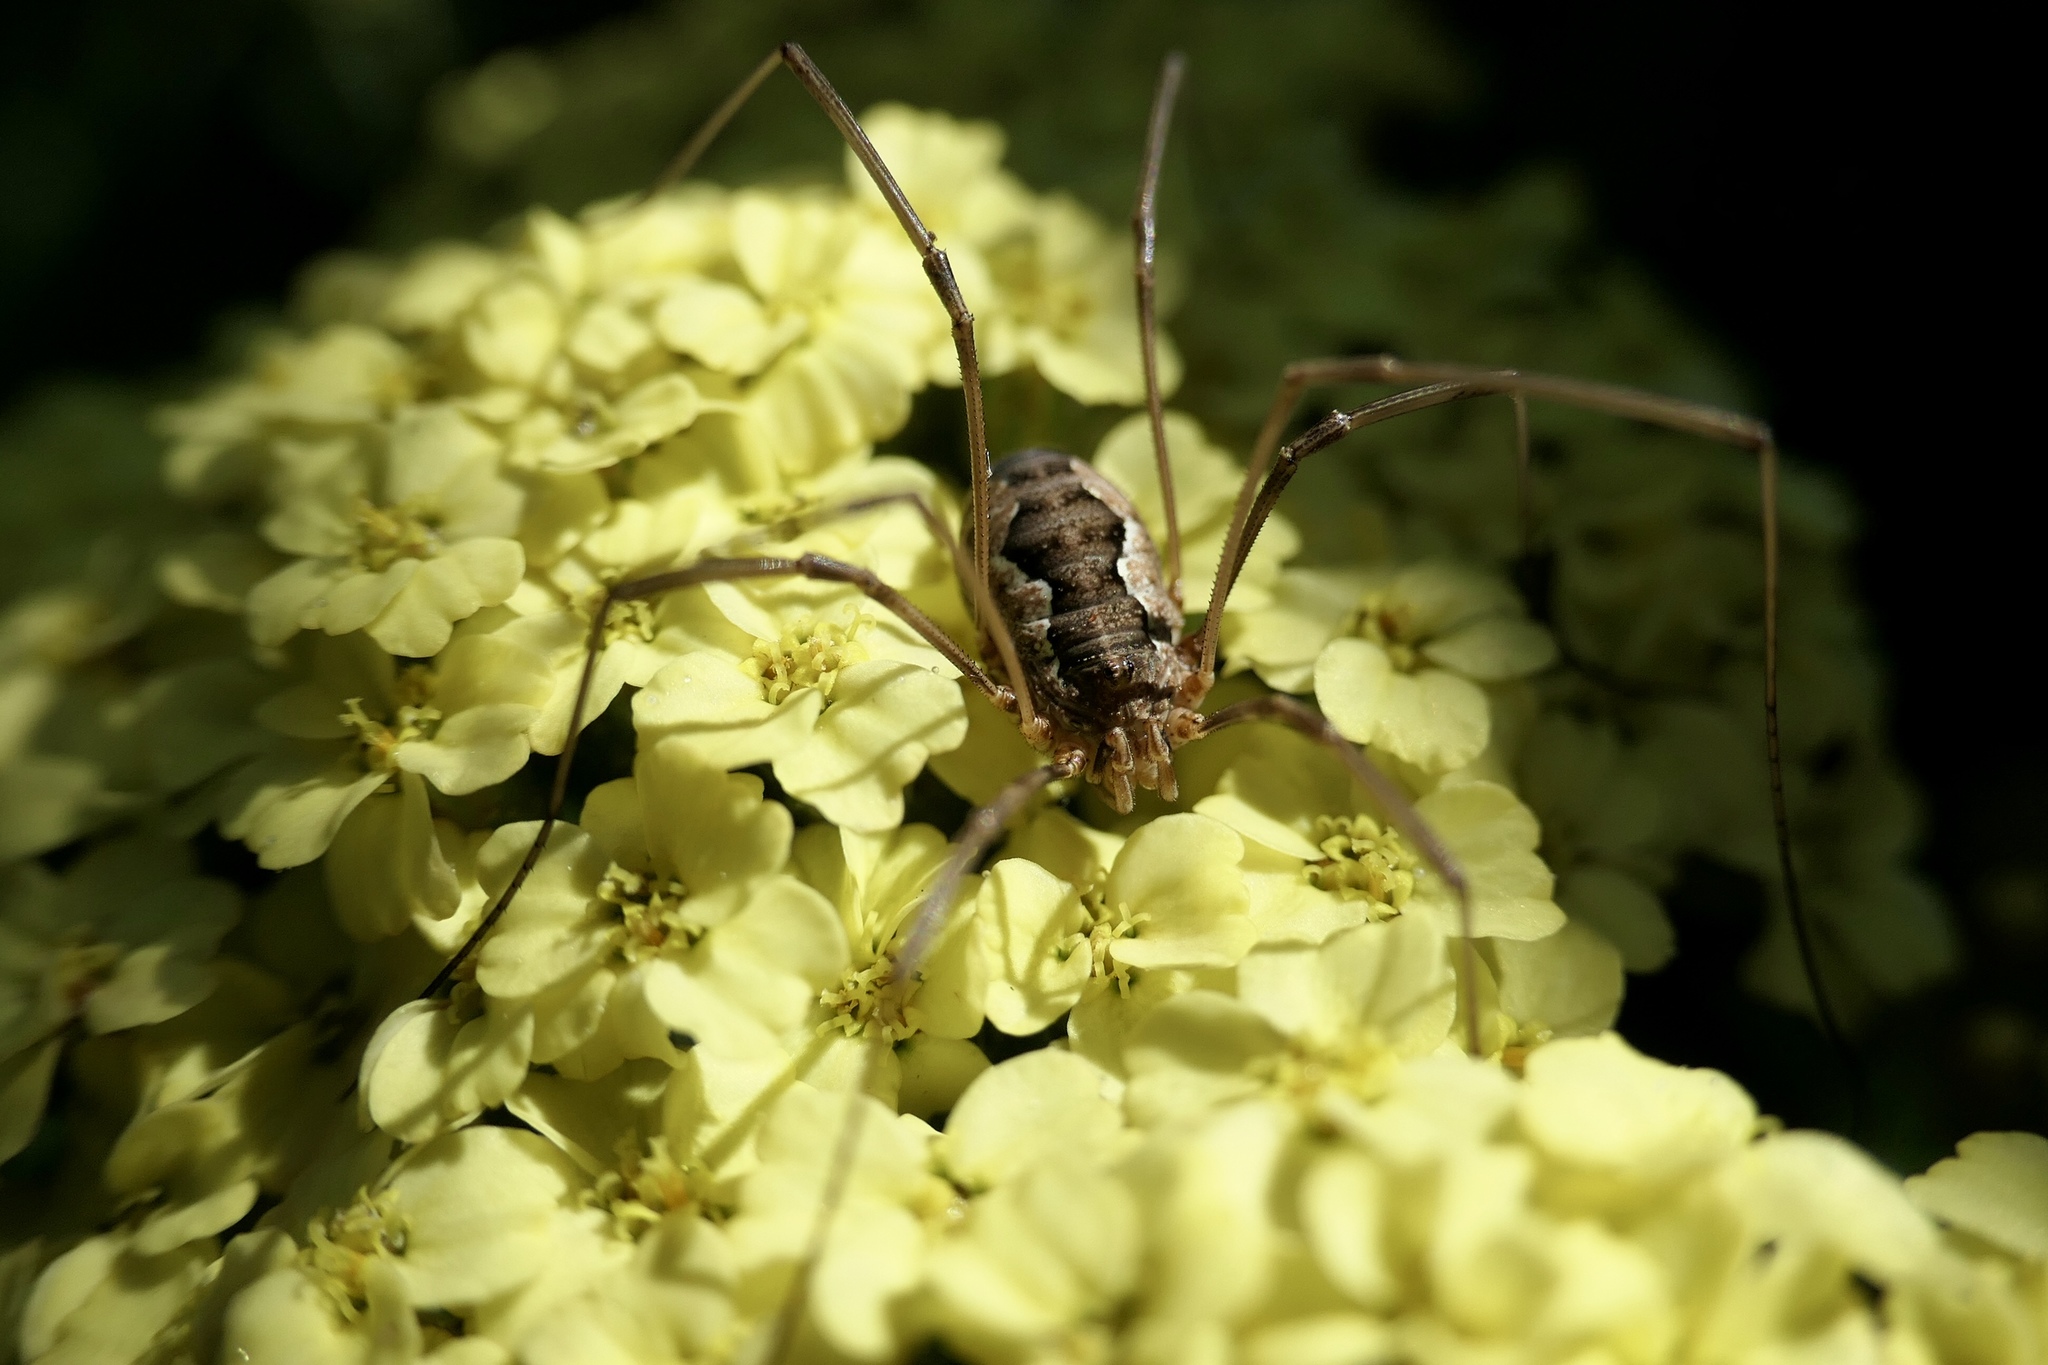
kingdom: Animalia
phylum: Arthropoda
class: Arachnida
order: Opiliones
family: Phalangiidae
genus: Phalangium
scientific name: Phalangium opilio
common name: Daddy longleg
